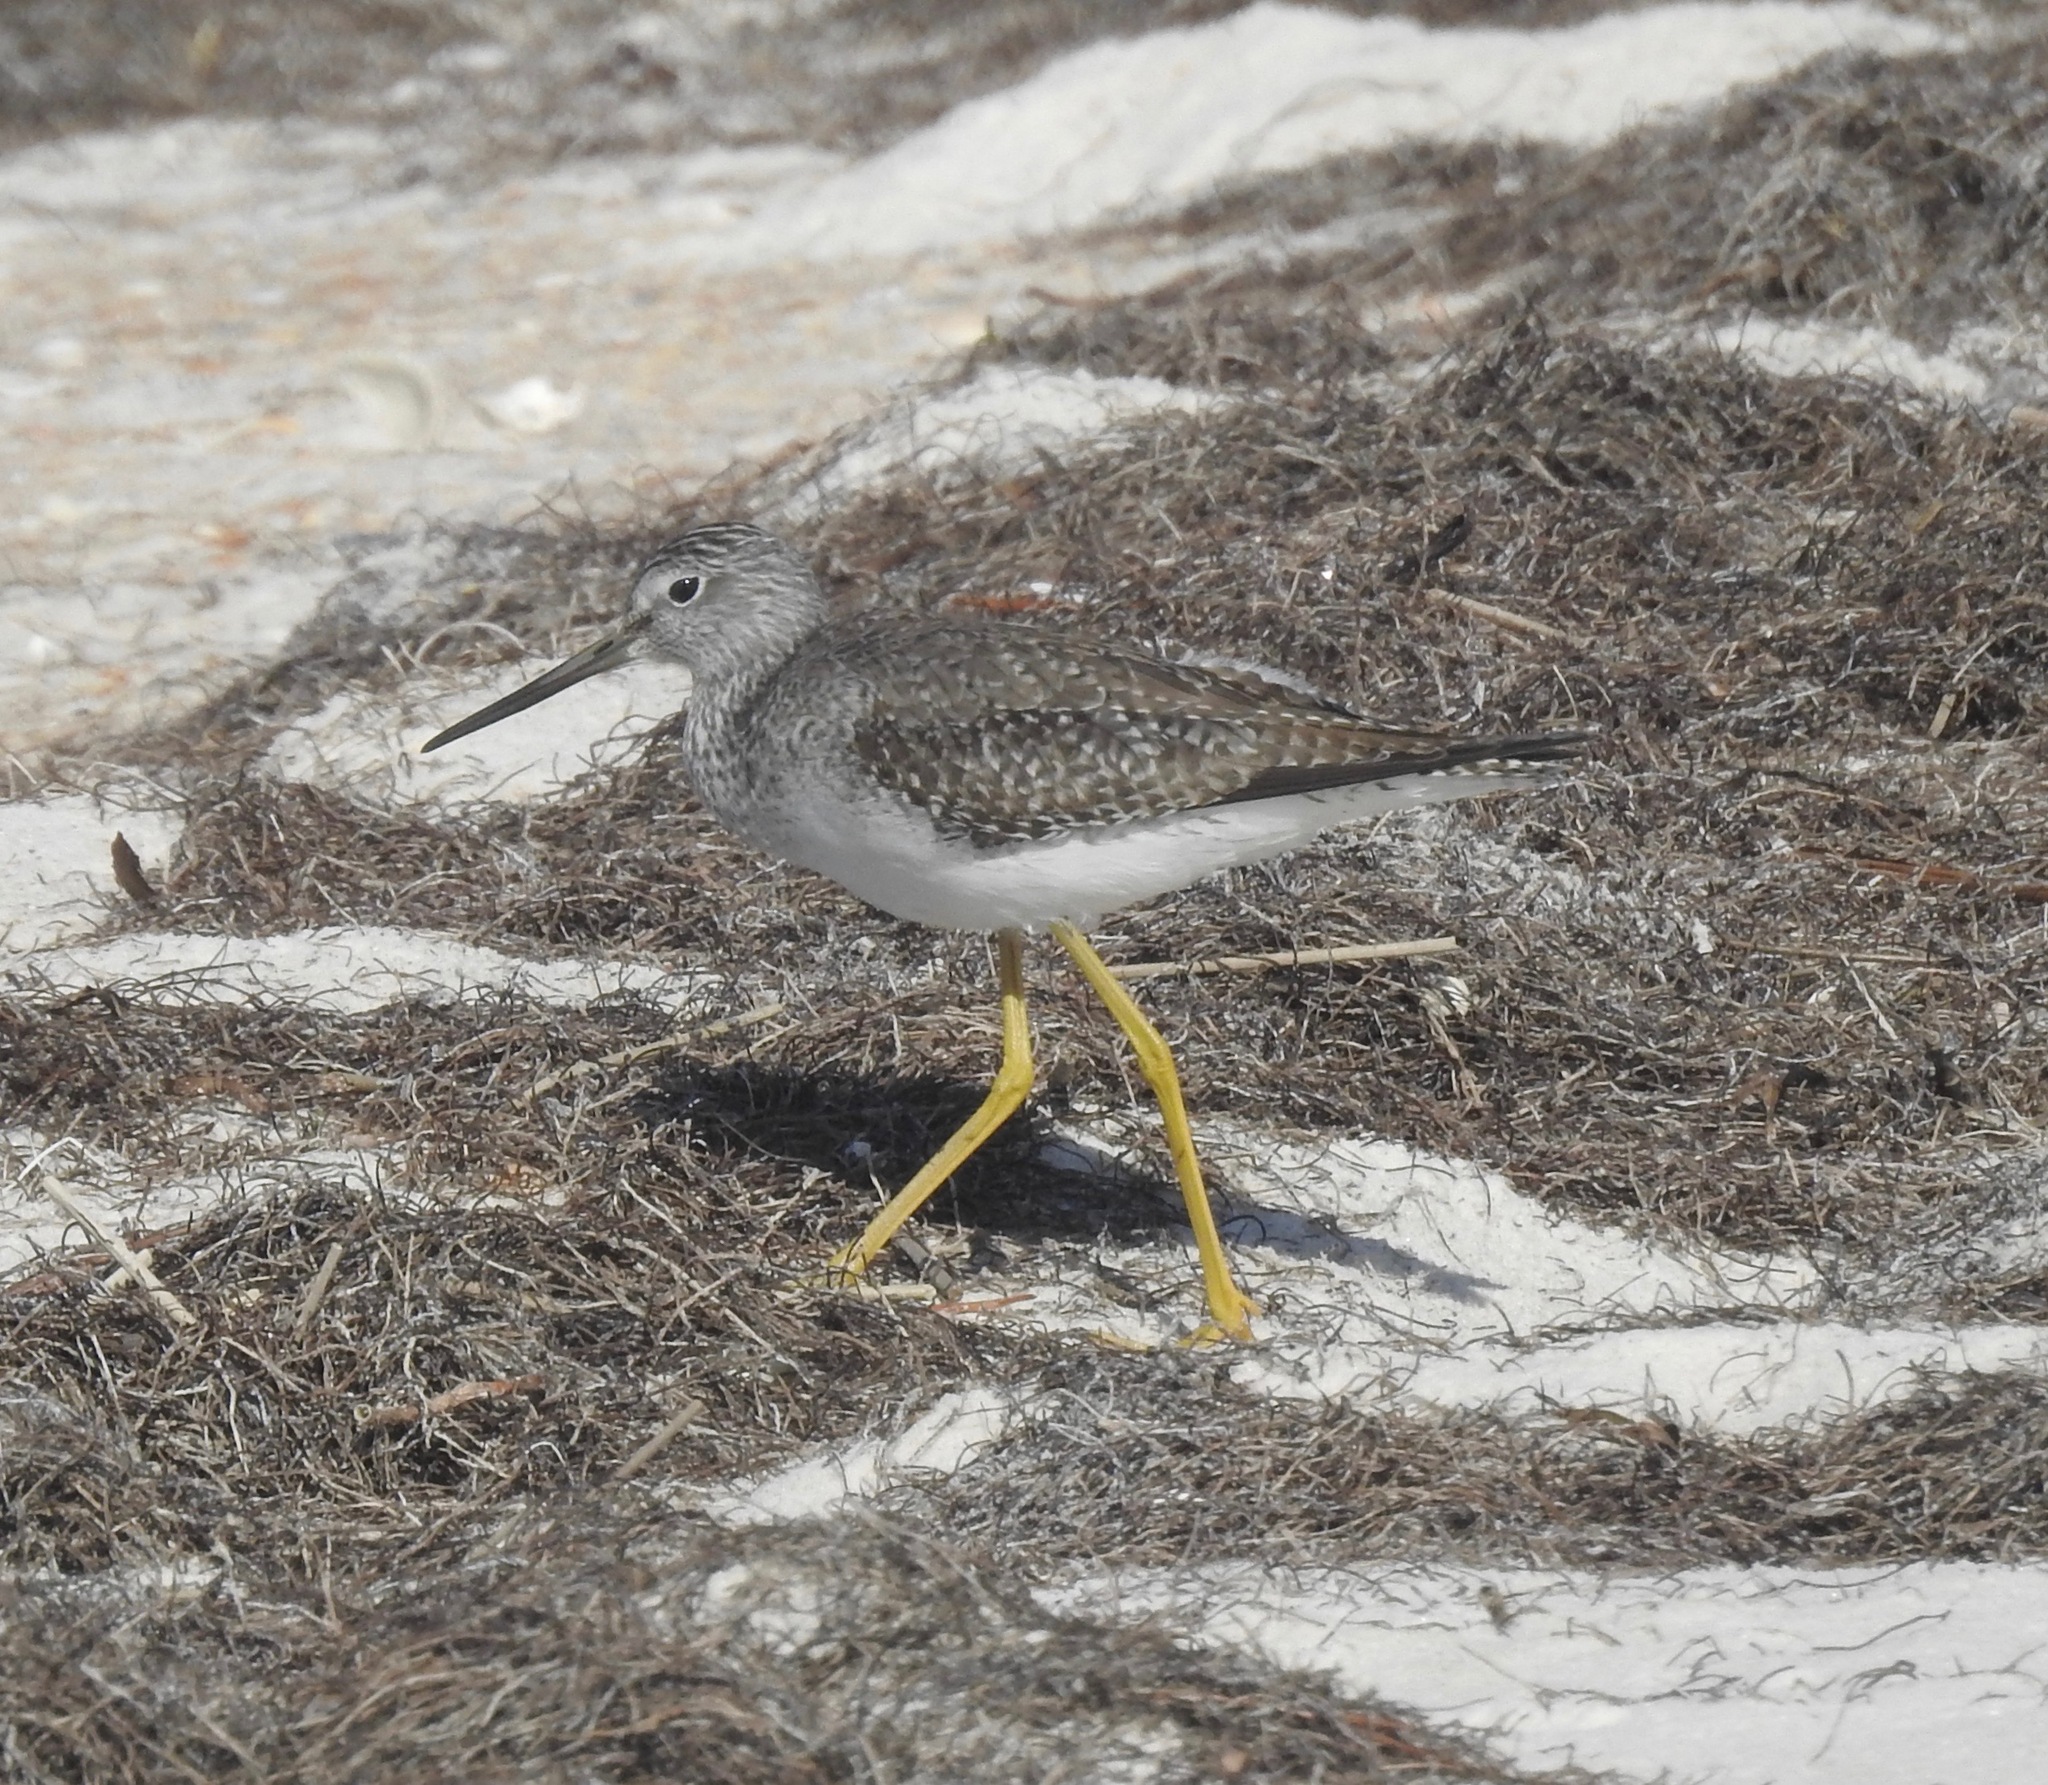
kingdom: Animalia
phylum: Chordata
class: Aves
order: Charadriiformes
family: Scolopacidae
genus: Tringa
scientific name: Tringa melanoleuca
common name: Greater yellowlegs
